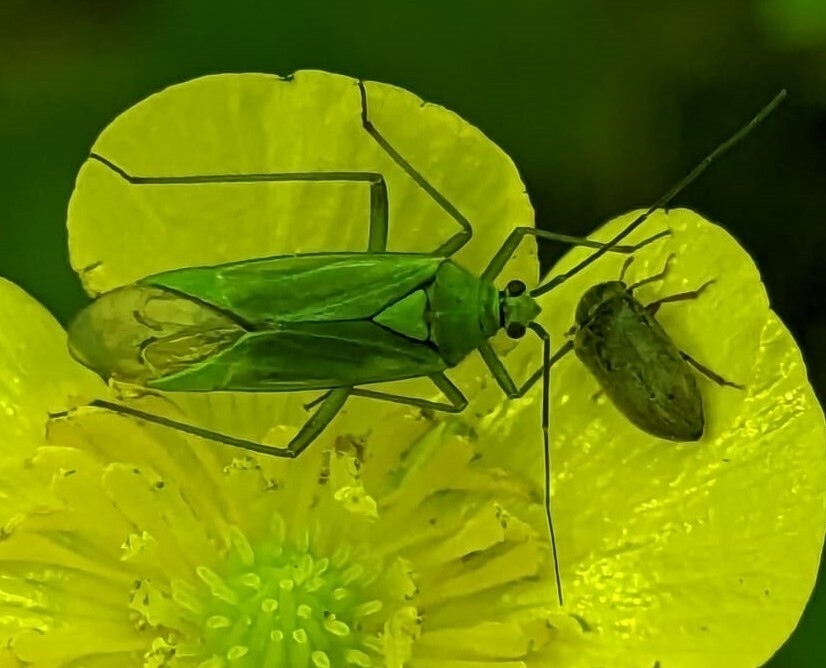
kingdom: Animalia
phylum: Arthropoda
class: Insecta
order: Hemiptera
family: Miridae
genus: Calocoris
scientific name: Calocoris alpestris
